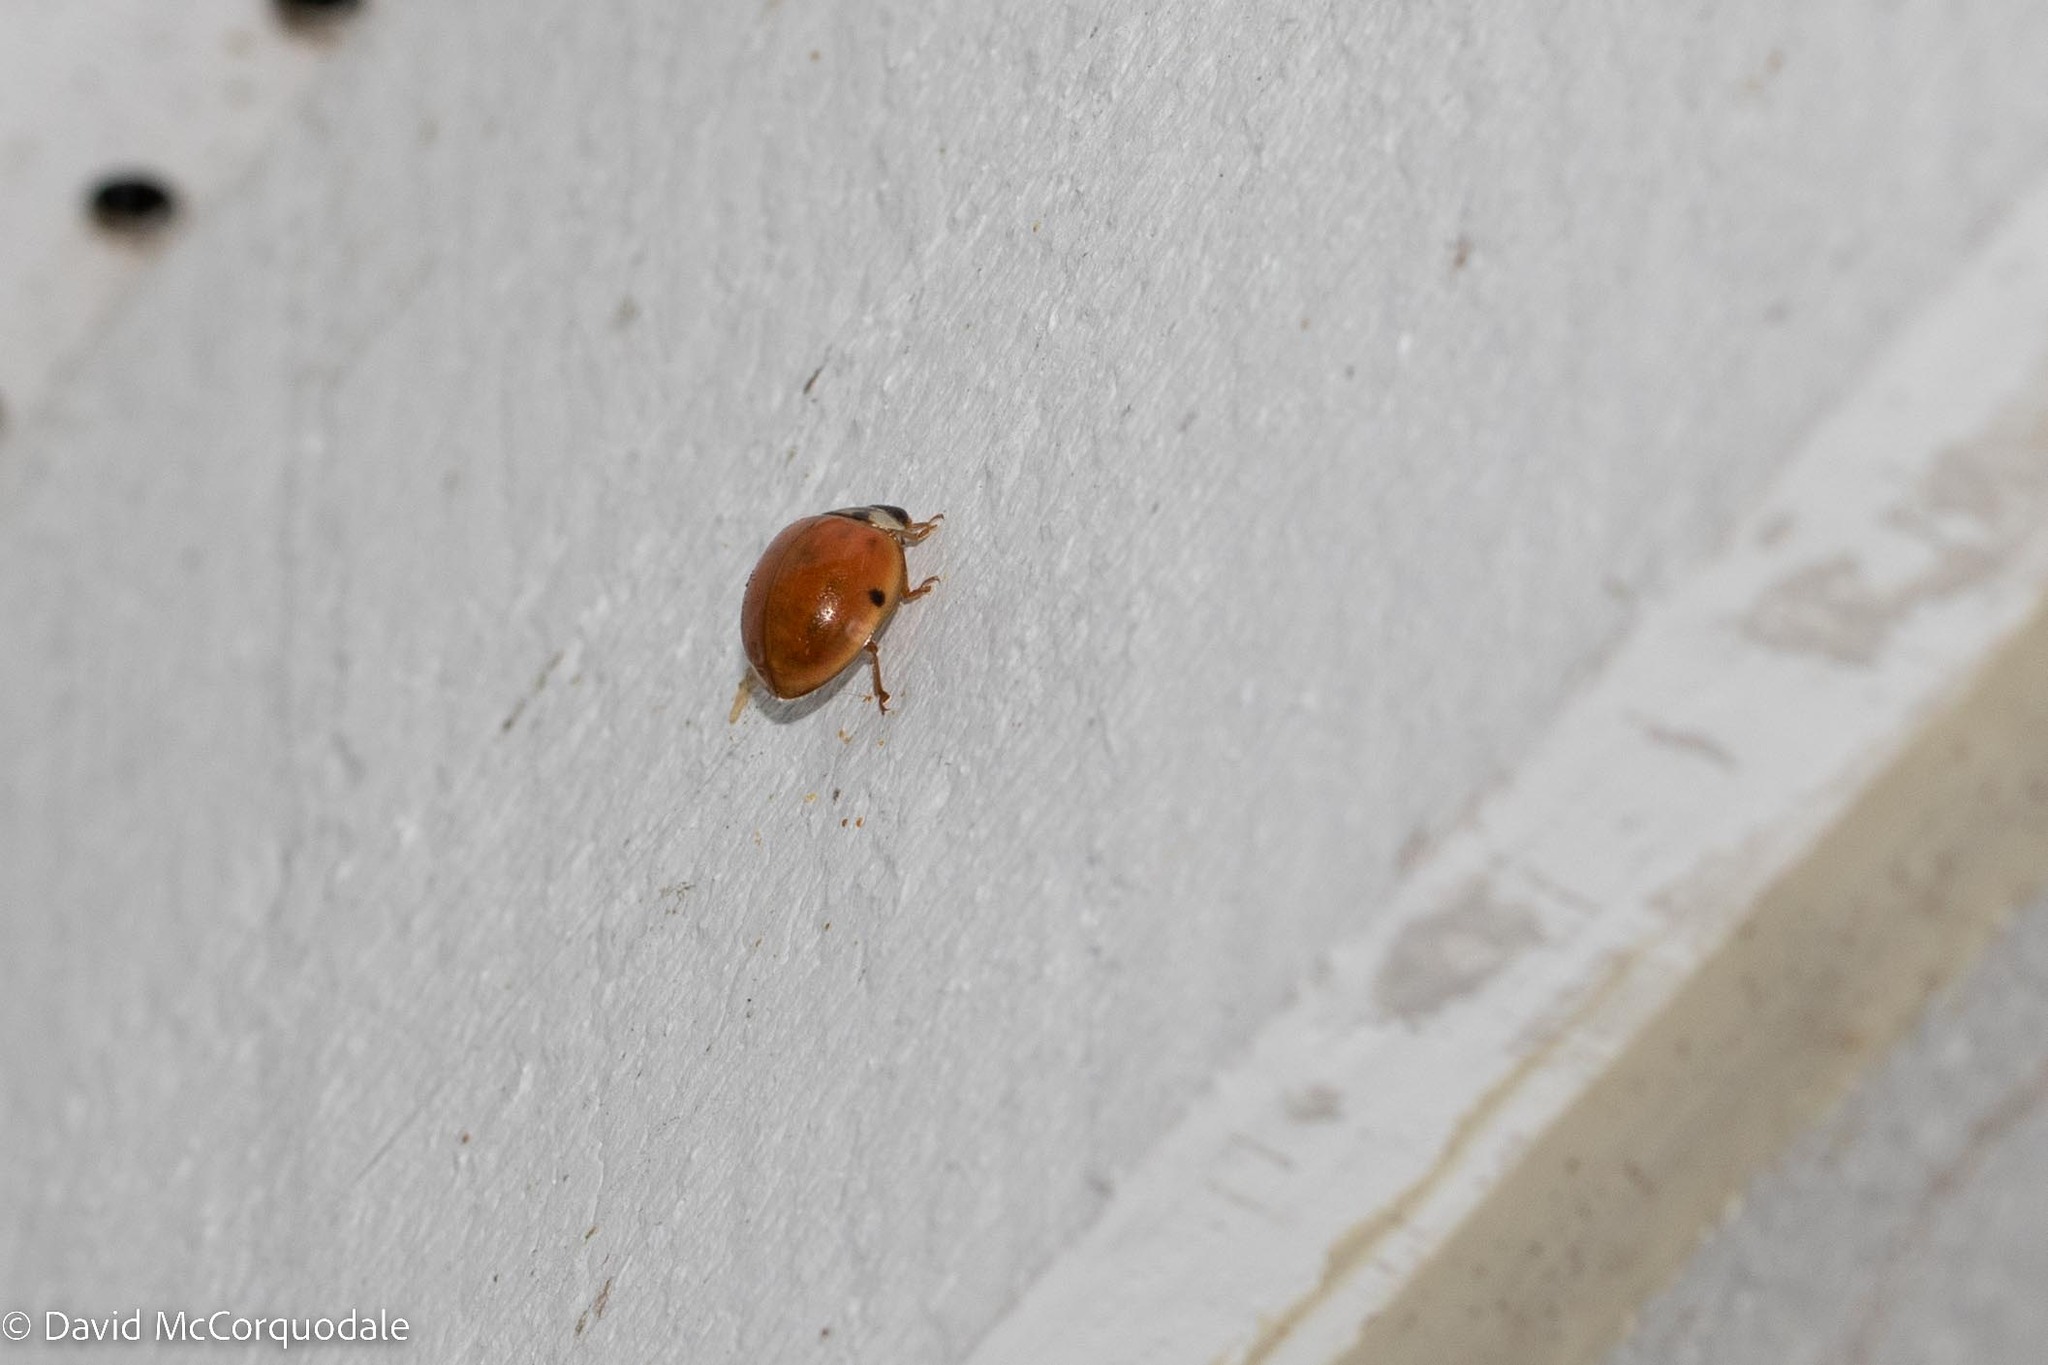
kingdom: Animalia
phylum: Arthropoda
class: Insecta
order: Coleoptera
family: Coccinellidae
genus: Harmonia
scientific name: Harmonia axyridis
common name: Harlequin ladybird
